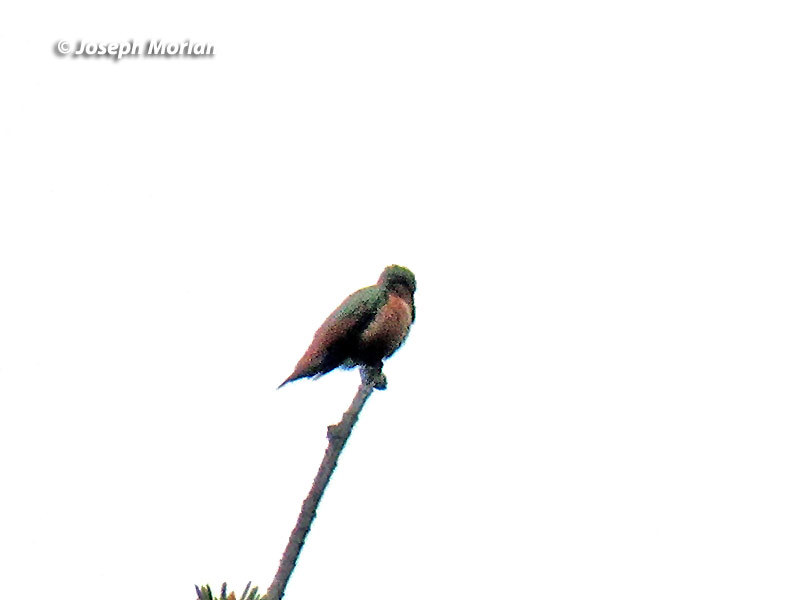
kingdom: Animalia
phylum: Chordata
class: Aves
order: Apodiformes
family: Trochilidae
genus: Selasphorus
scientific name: Selasphorus sasin
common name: Allen's hummingbird
